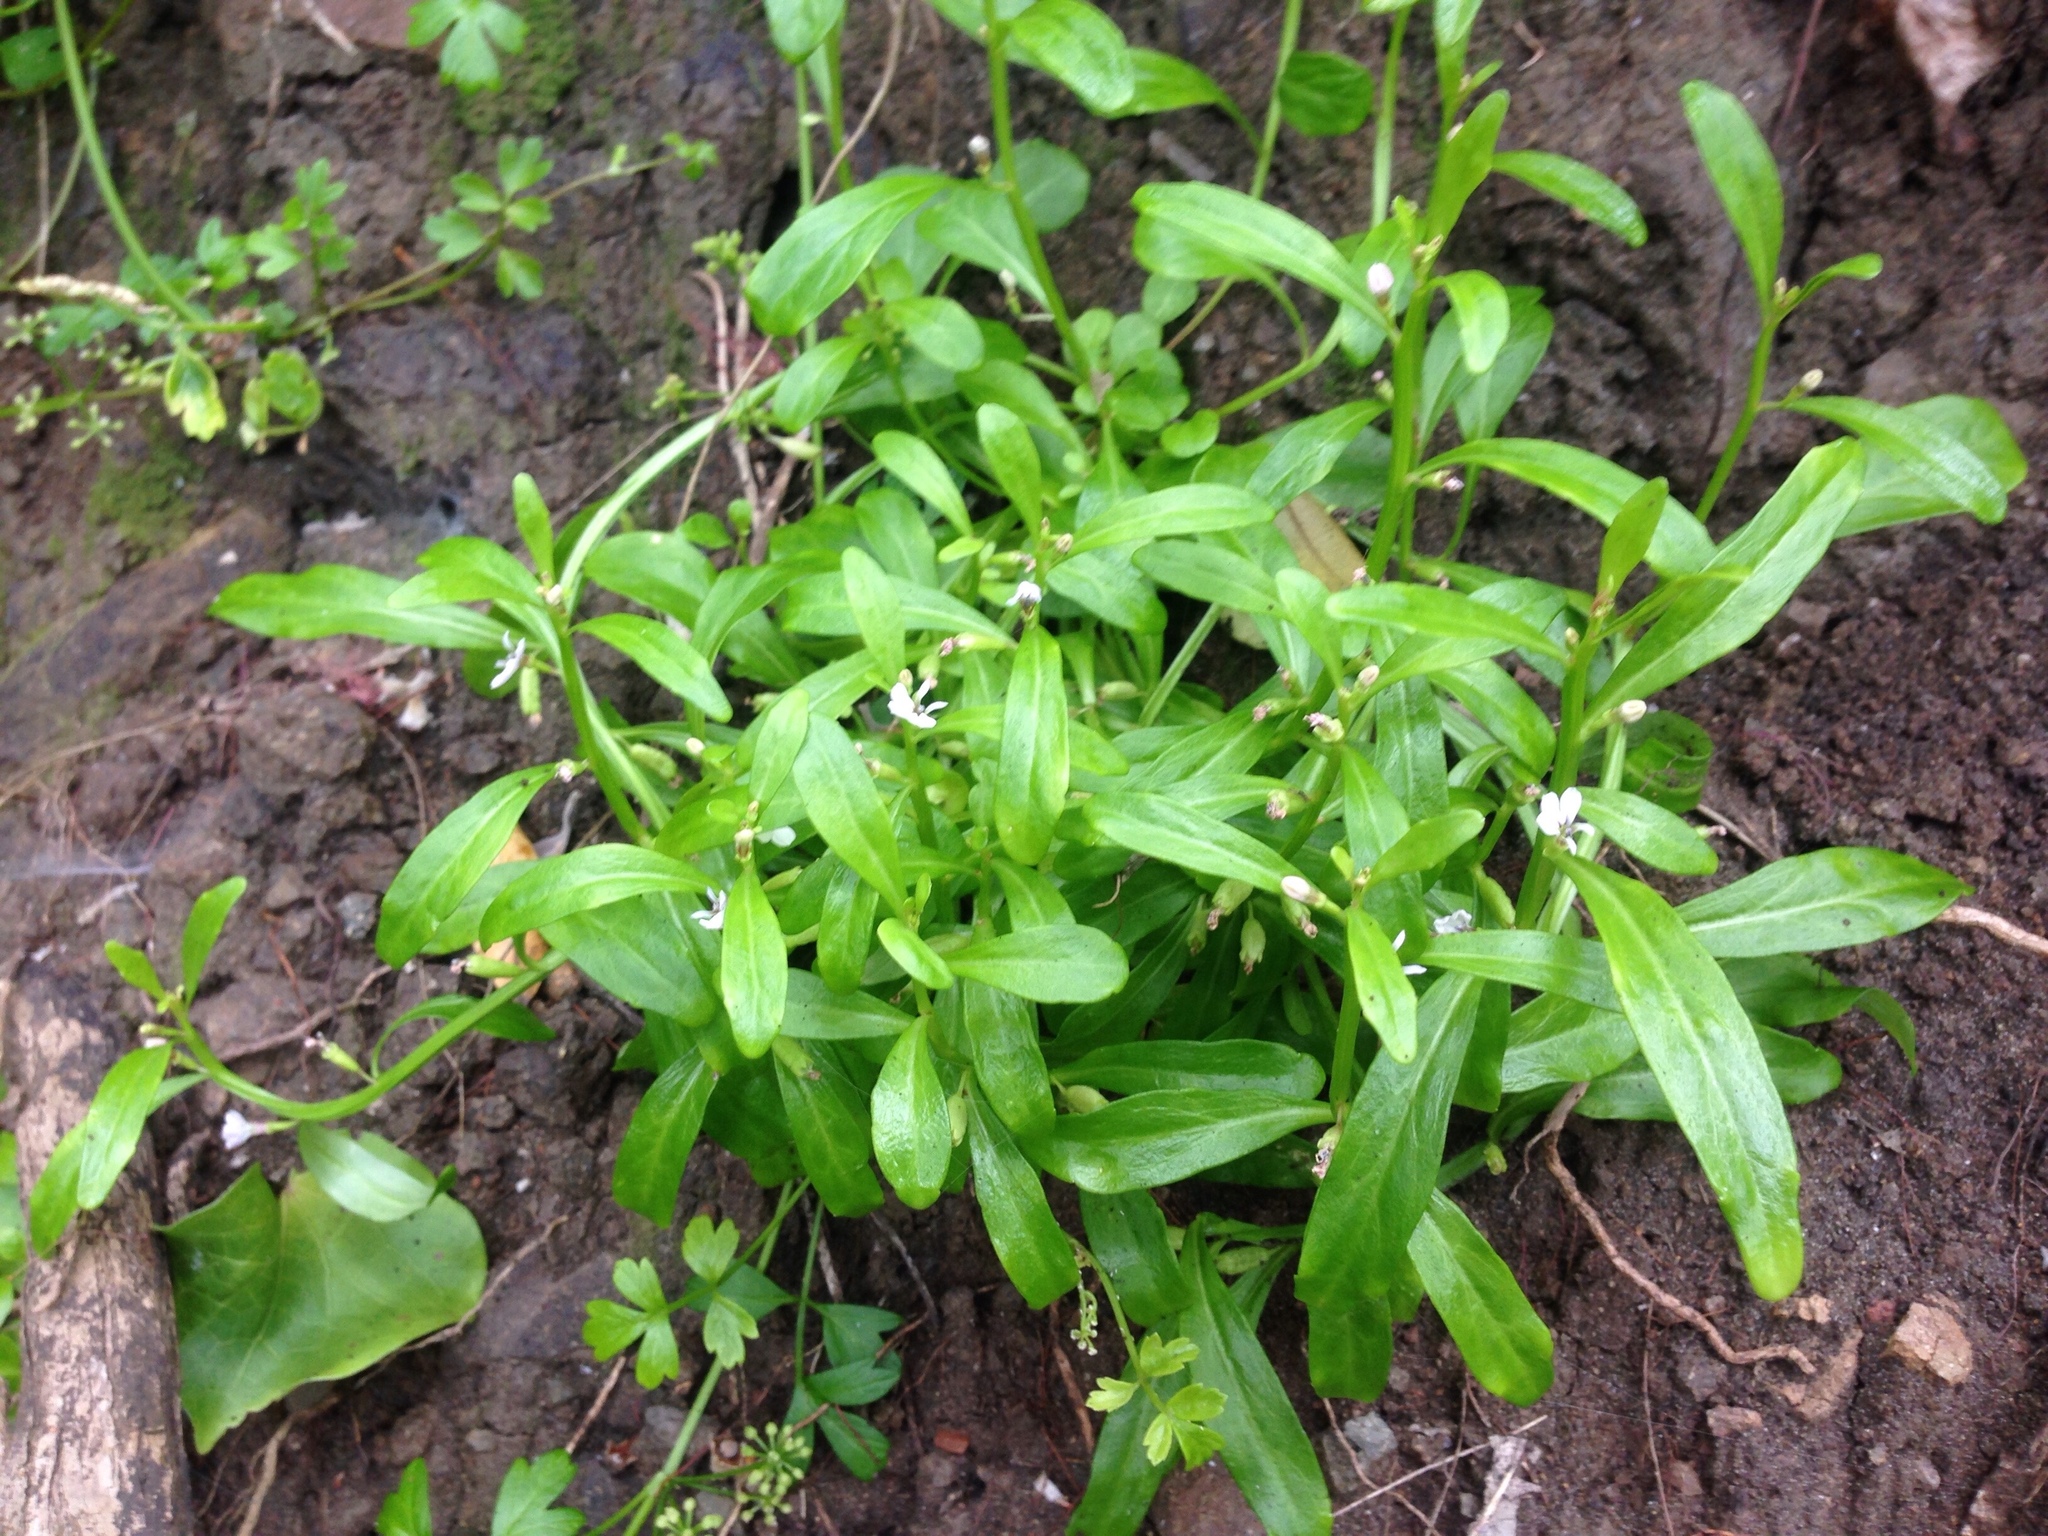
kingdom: Plantae
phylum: Tracheophyta
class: Magnoliopsida
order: Asterales
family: Campanulaceae
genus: Lobelia
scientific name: Lobelia anceps
